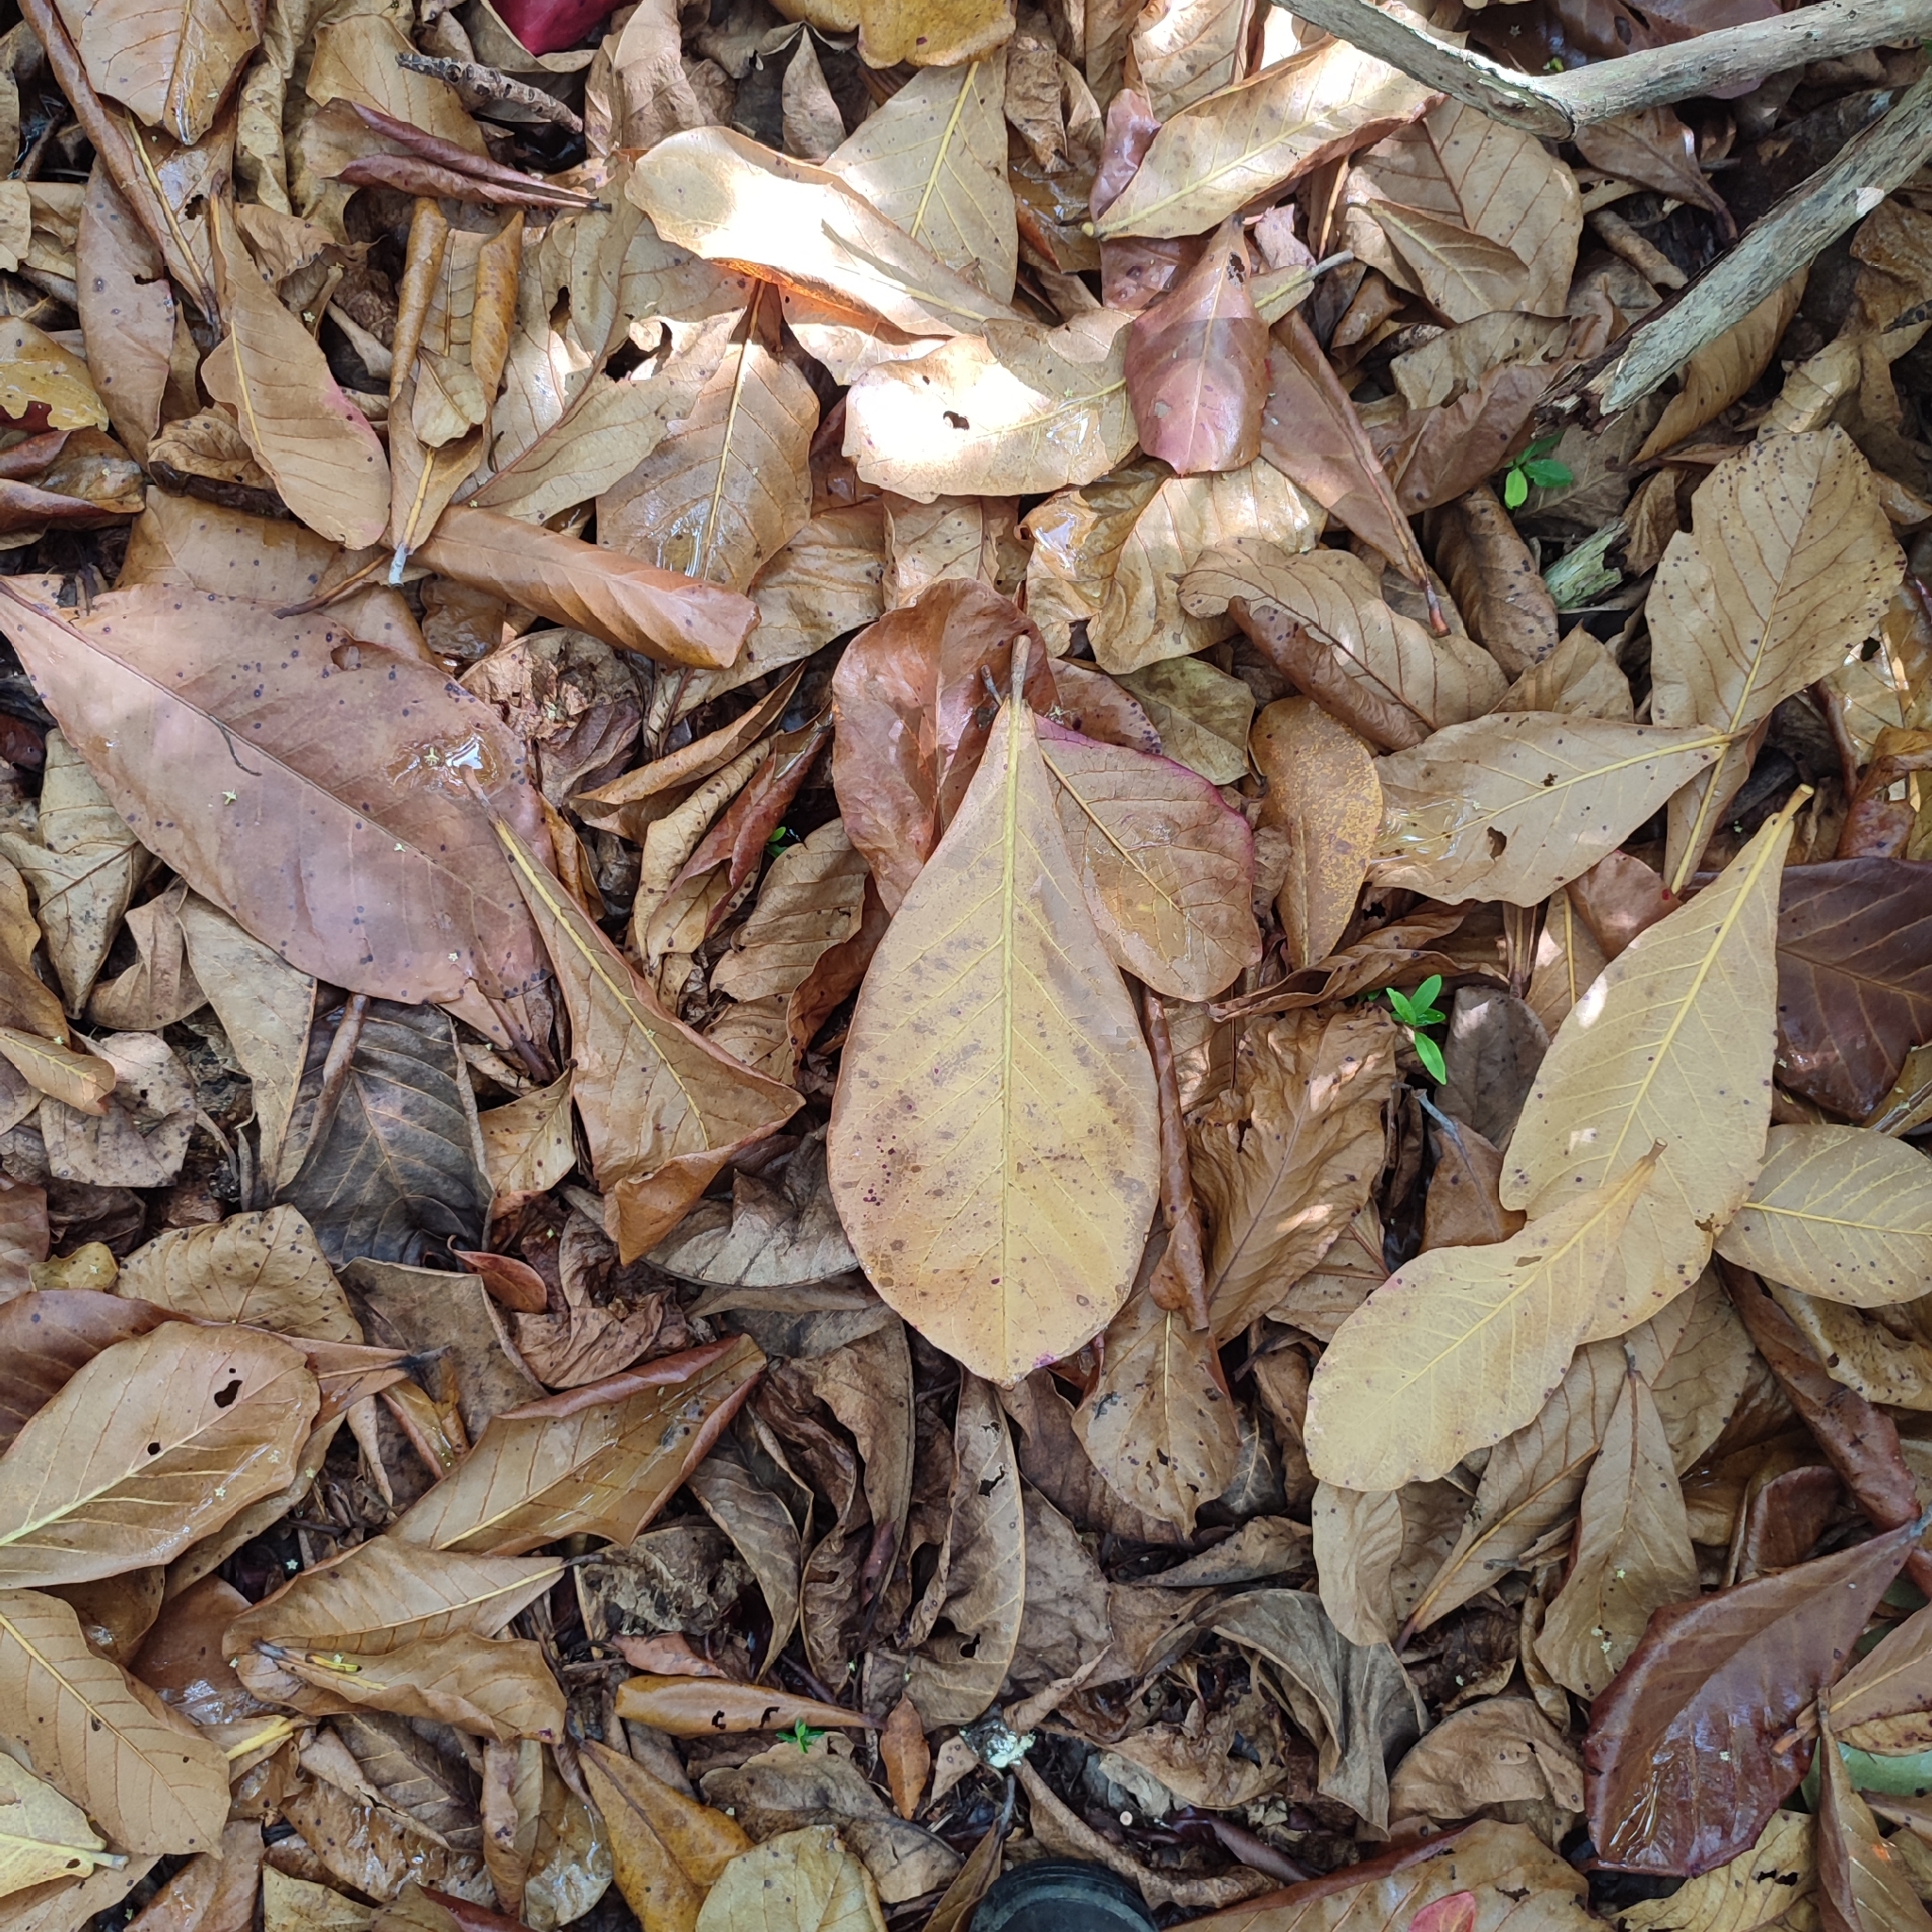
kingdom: Plantae
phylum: Tracheophyta
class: Magnoliopsida
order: Myrtales
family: Combretaceae
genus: Terminalia
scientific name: Terminalia catappa
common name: Tropical almond
